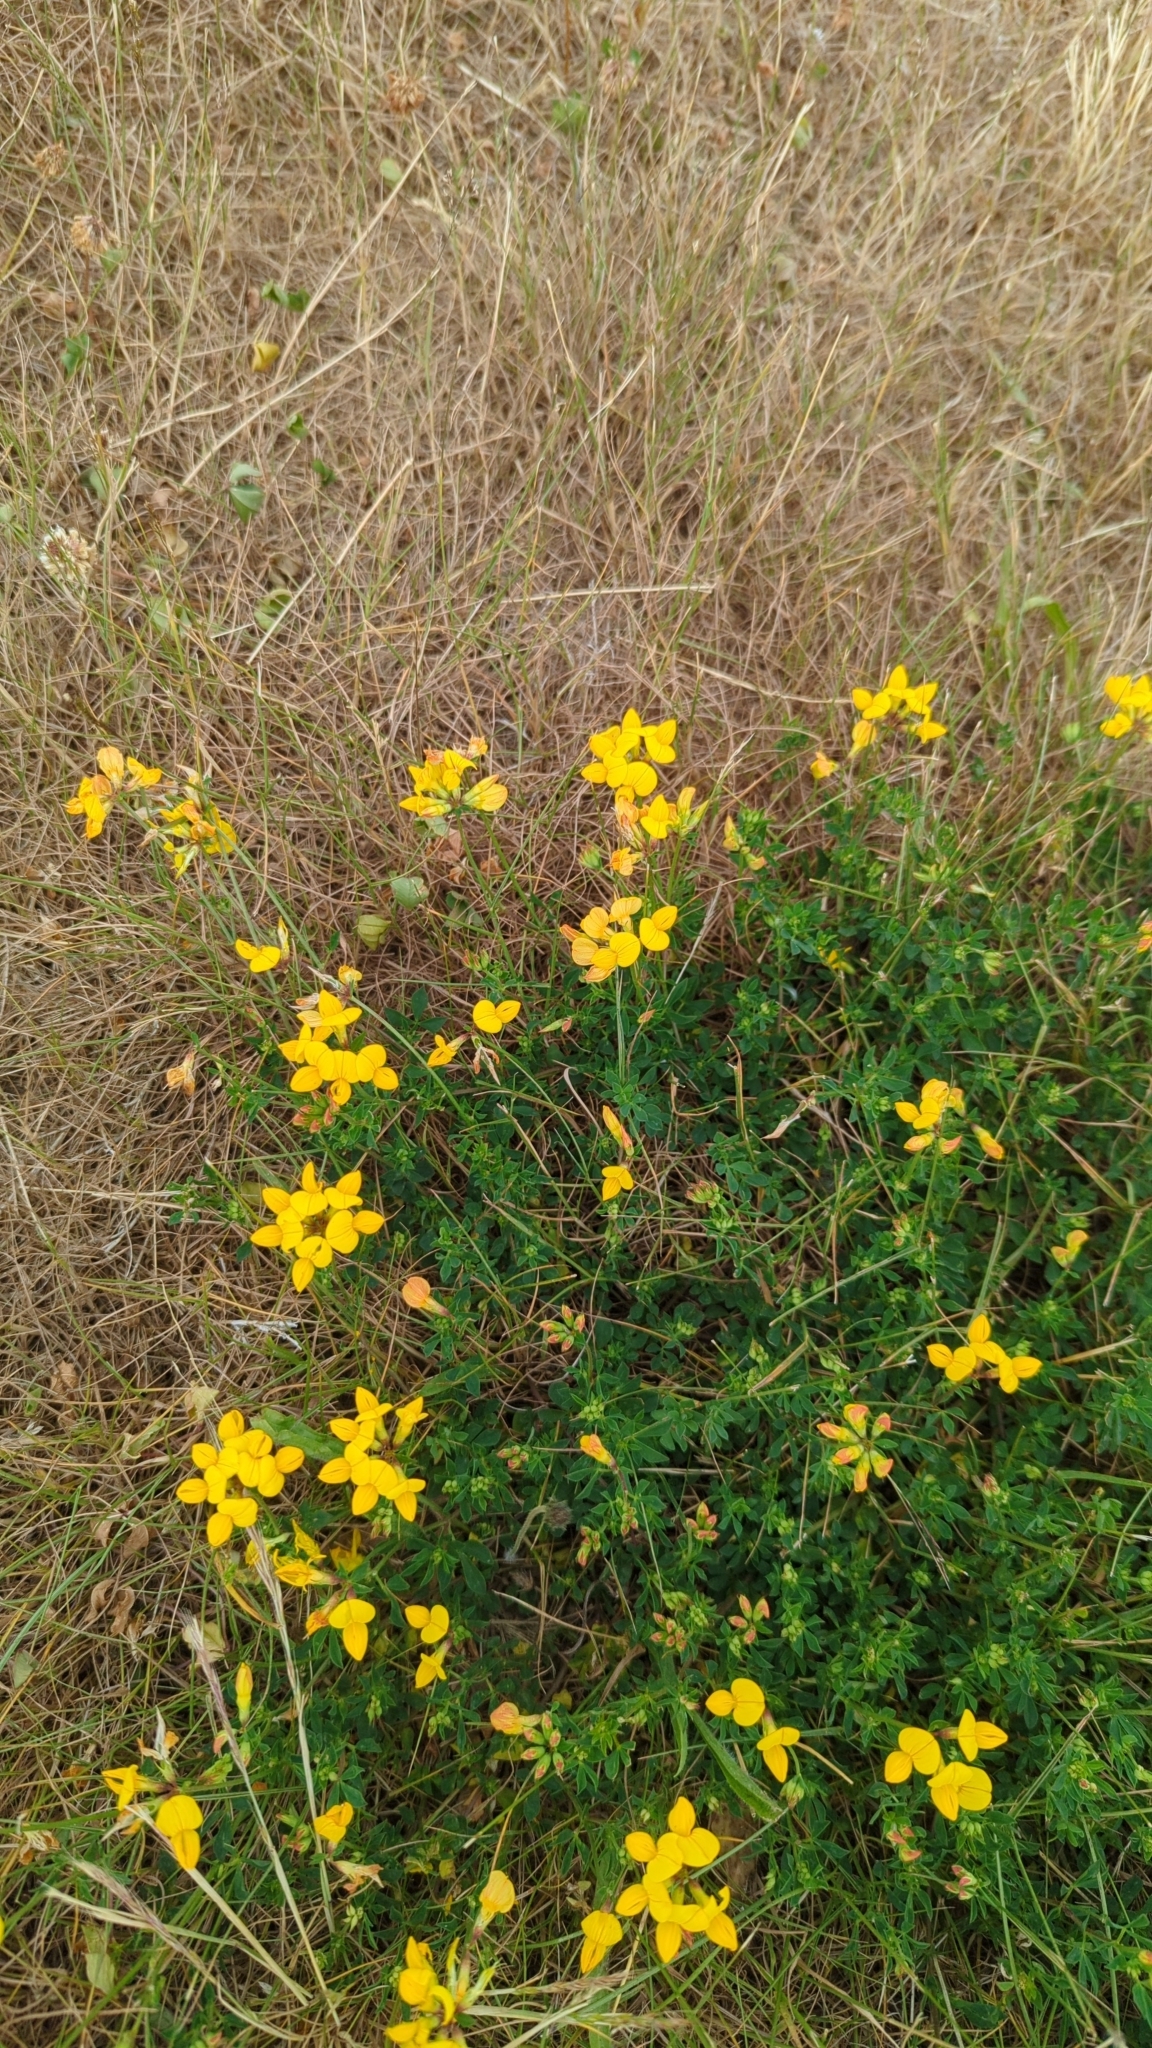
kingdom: Plantae
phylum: Tracheophyta
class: Magnoliopsida
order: Fabales
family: Fabaceae
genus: Lotus
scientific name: Lotus corniculatus
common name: Common bird's-foot-trefoil
